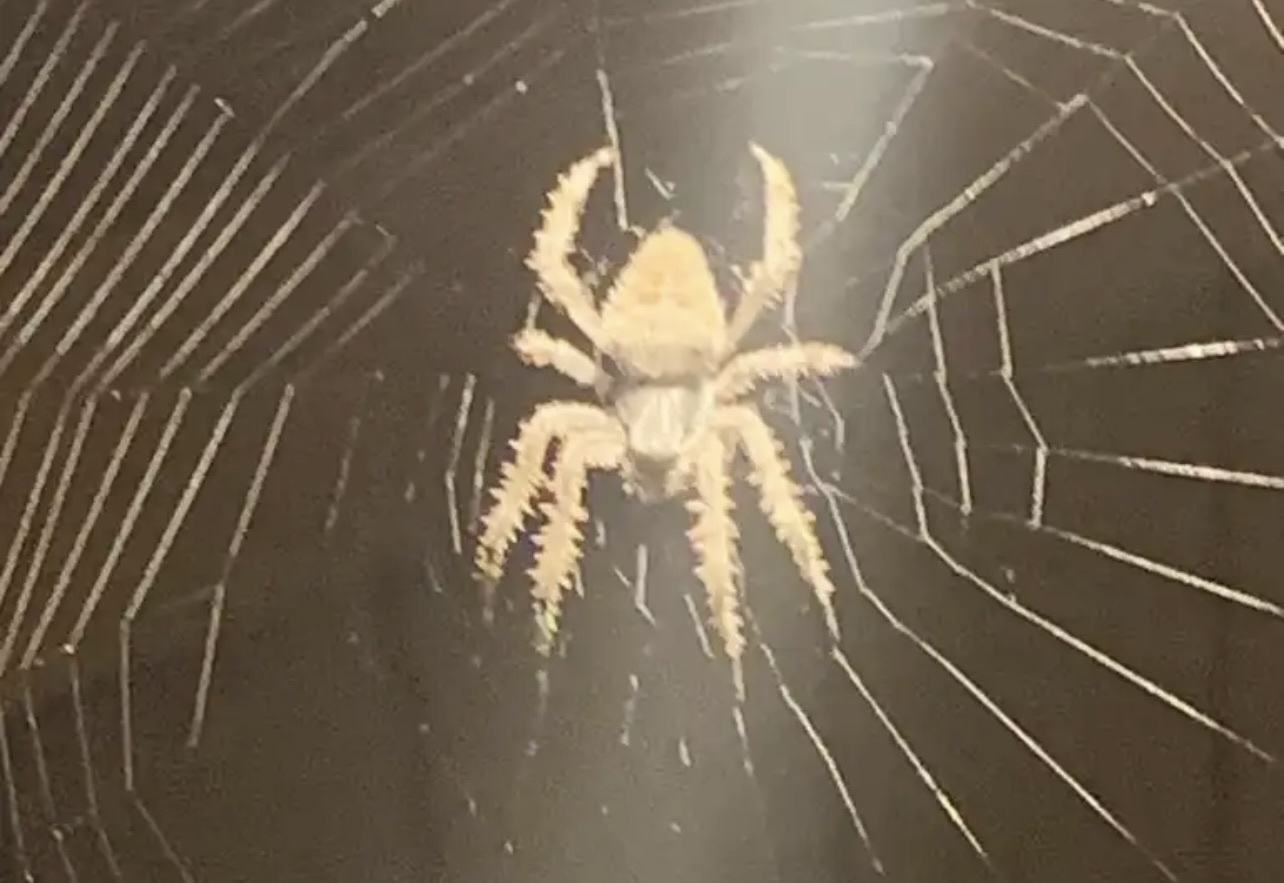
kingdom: Animalia
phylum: Arthropoda
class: Arachnida
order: Araneae
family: Araneidae
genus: Neoscona
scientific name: Neoscona crucifera
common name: Spotted orbweaver
